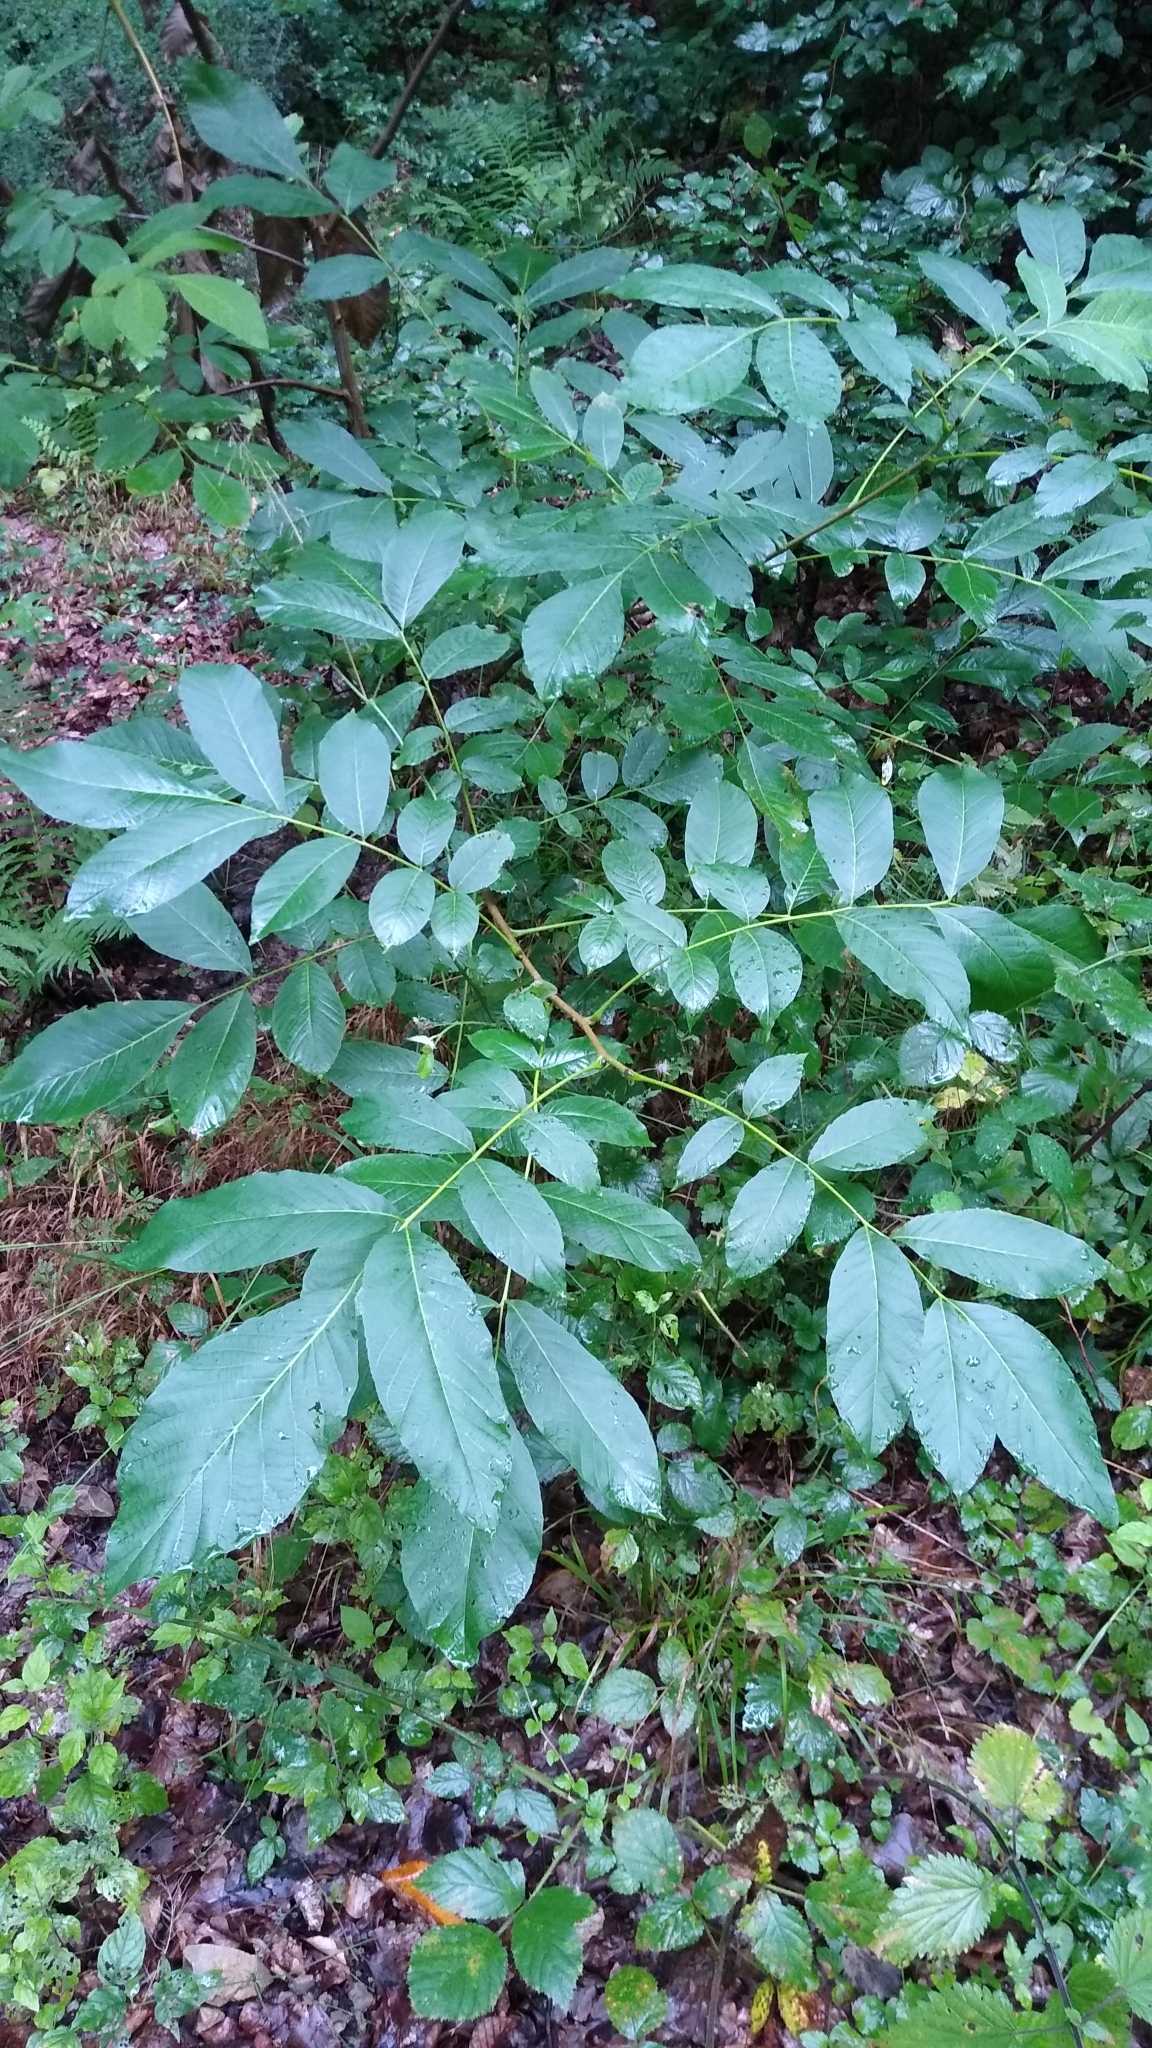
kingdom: Plantae
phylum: Tracheophyta
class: Magnoliopsida
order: Fagales
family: Juglandaceae
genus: Juglans
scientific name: Juglans regia
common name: Walnut
